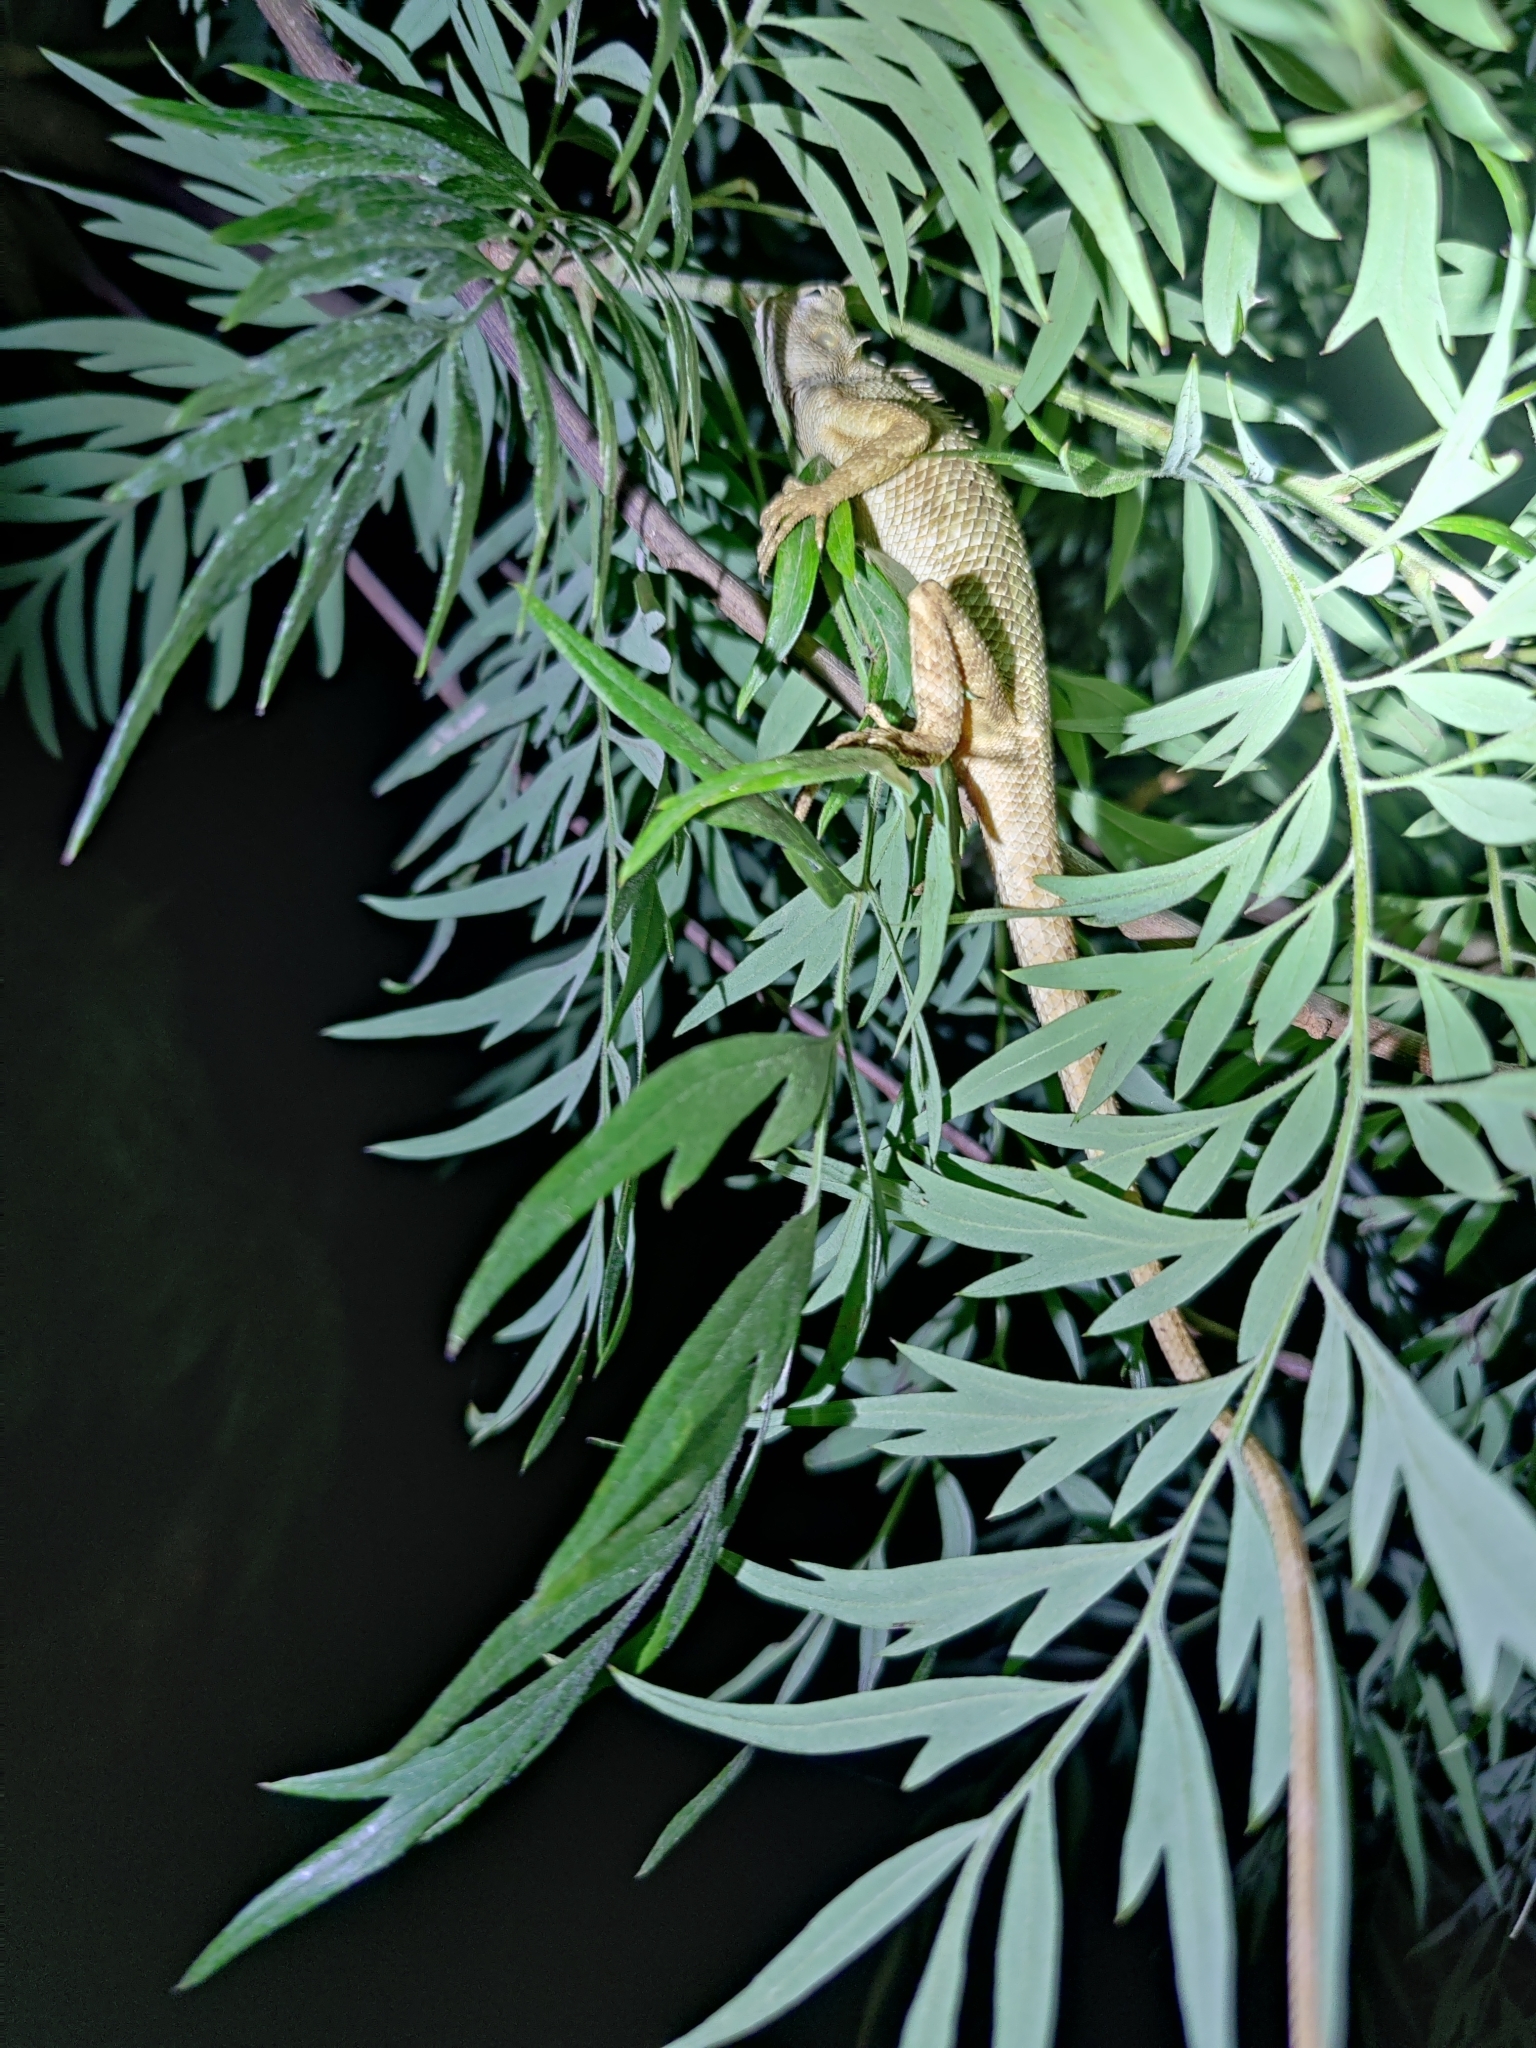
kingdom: Animalia
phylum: Chordata
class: Squamata
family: Agamidae
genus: Calotes
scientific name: Calotes versicolor
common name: Oriental garden lizard
